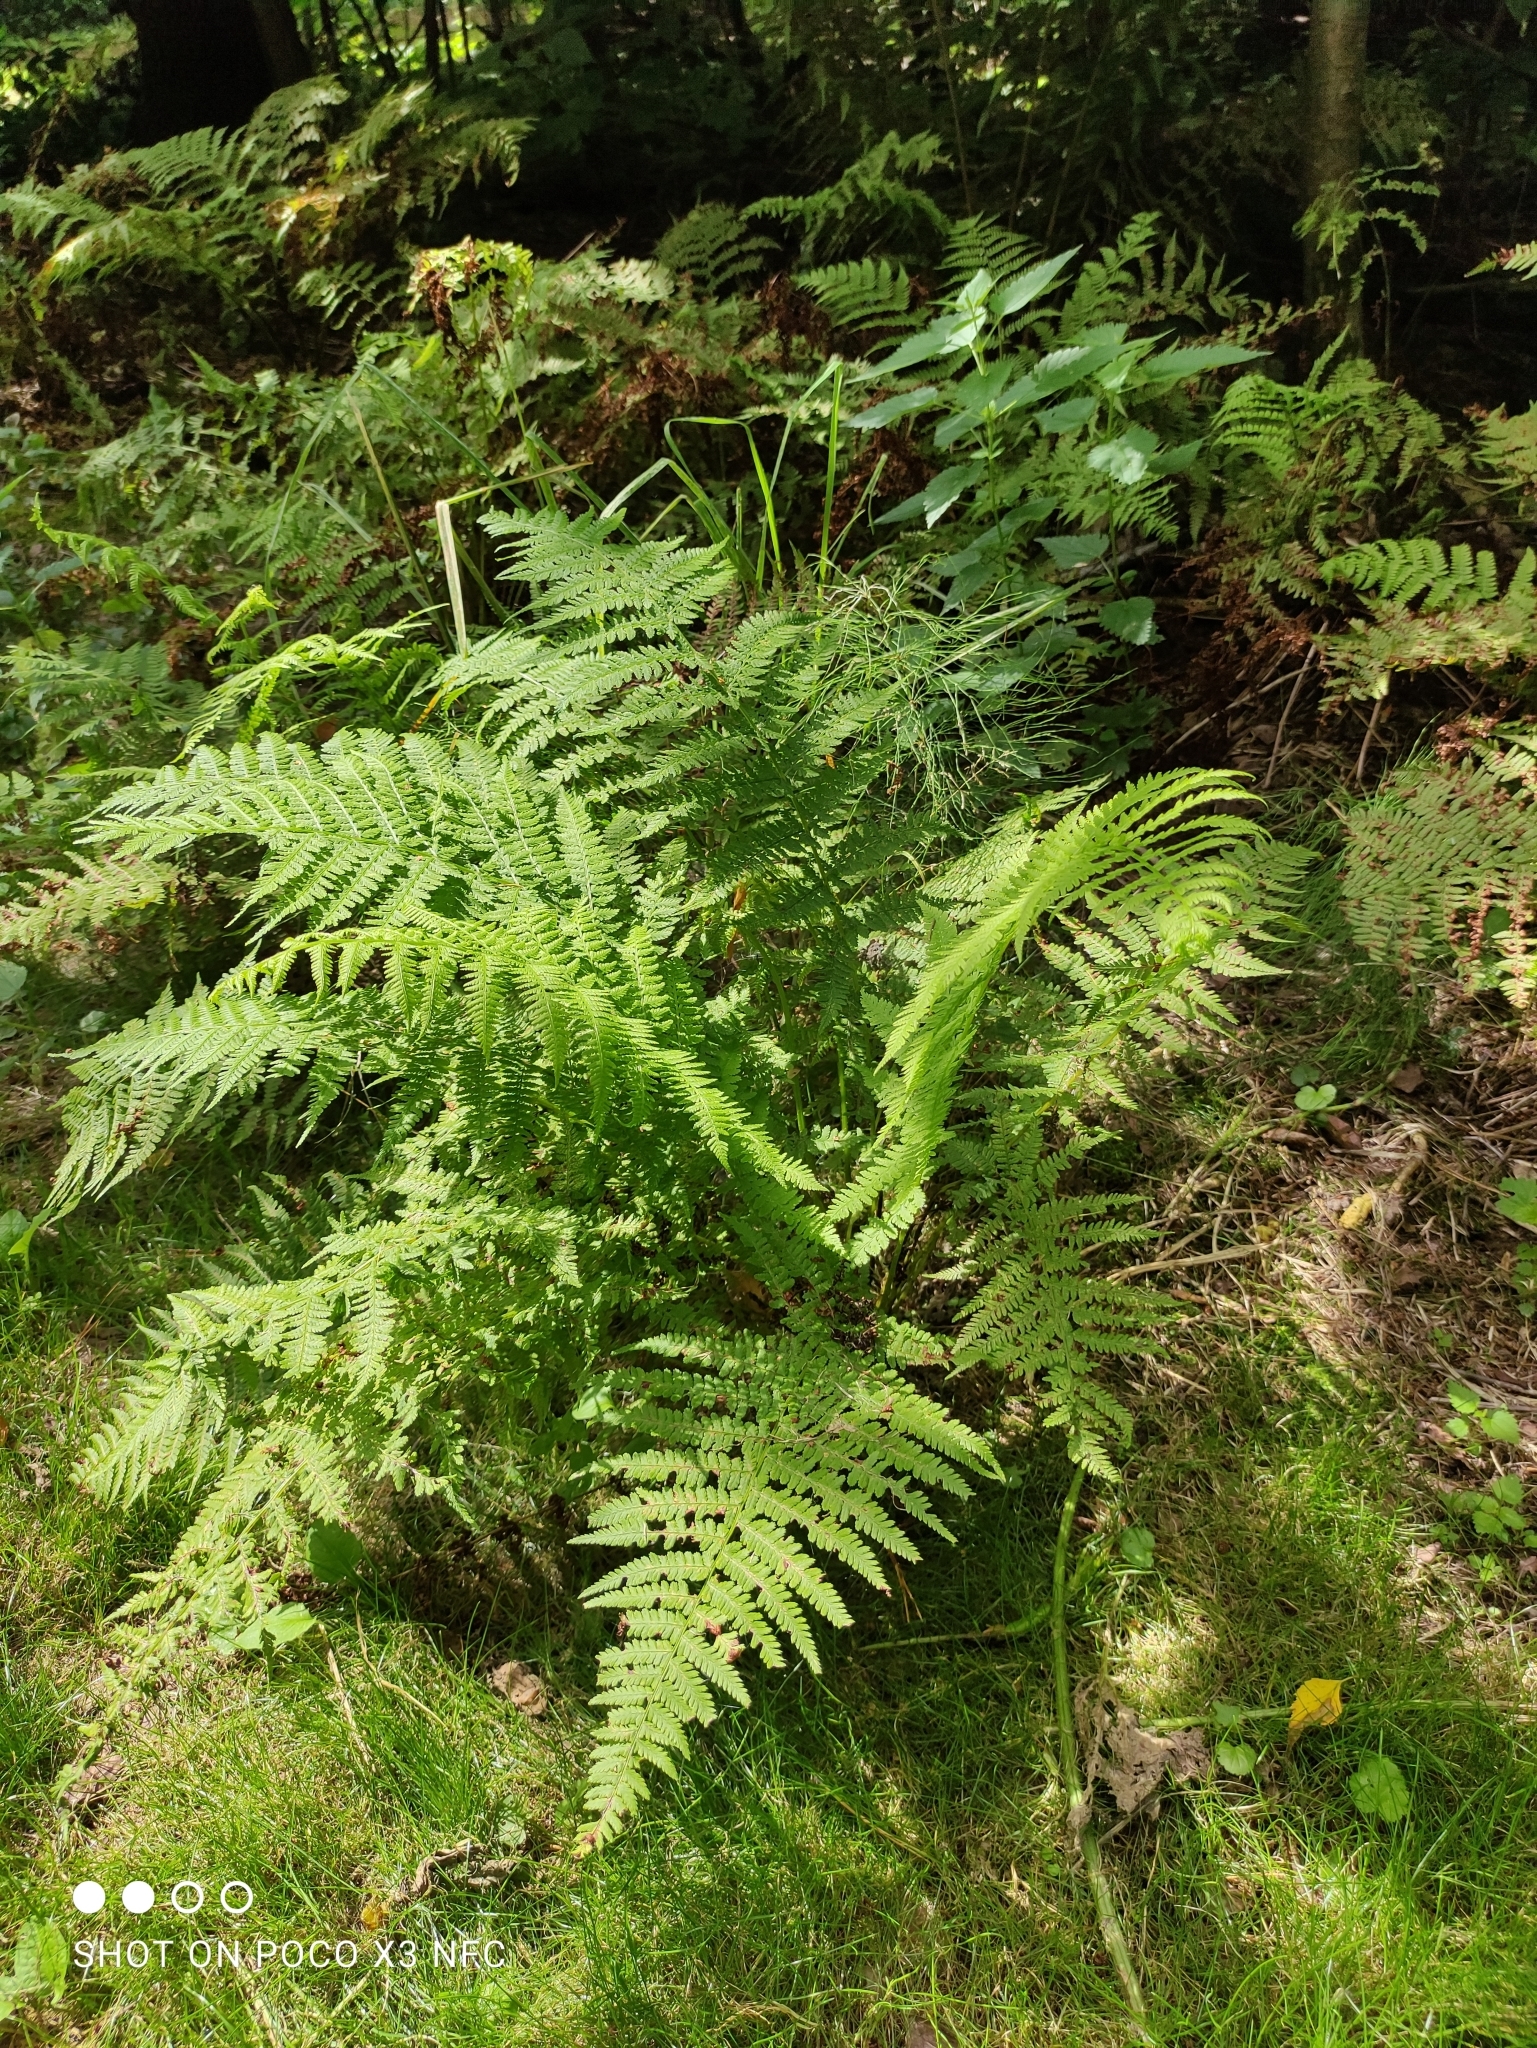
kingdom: Plantae
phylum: Tracheophyta
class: Polypodiopsida
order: Polypodiales
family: Athyriaceae
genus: Athyrium
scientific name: Athyrium filix-femina
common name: Lady fern
